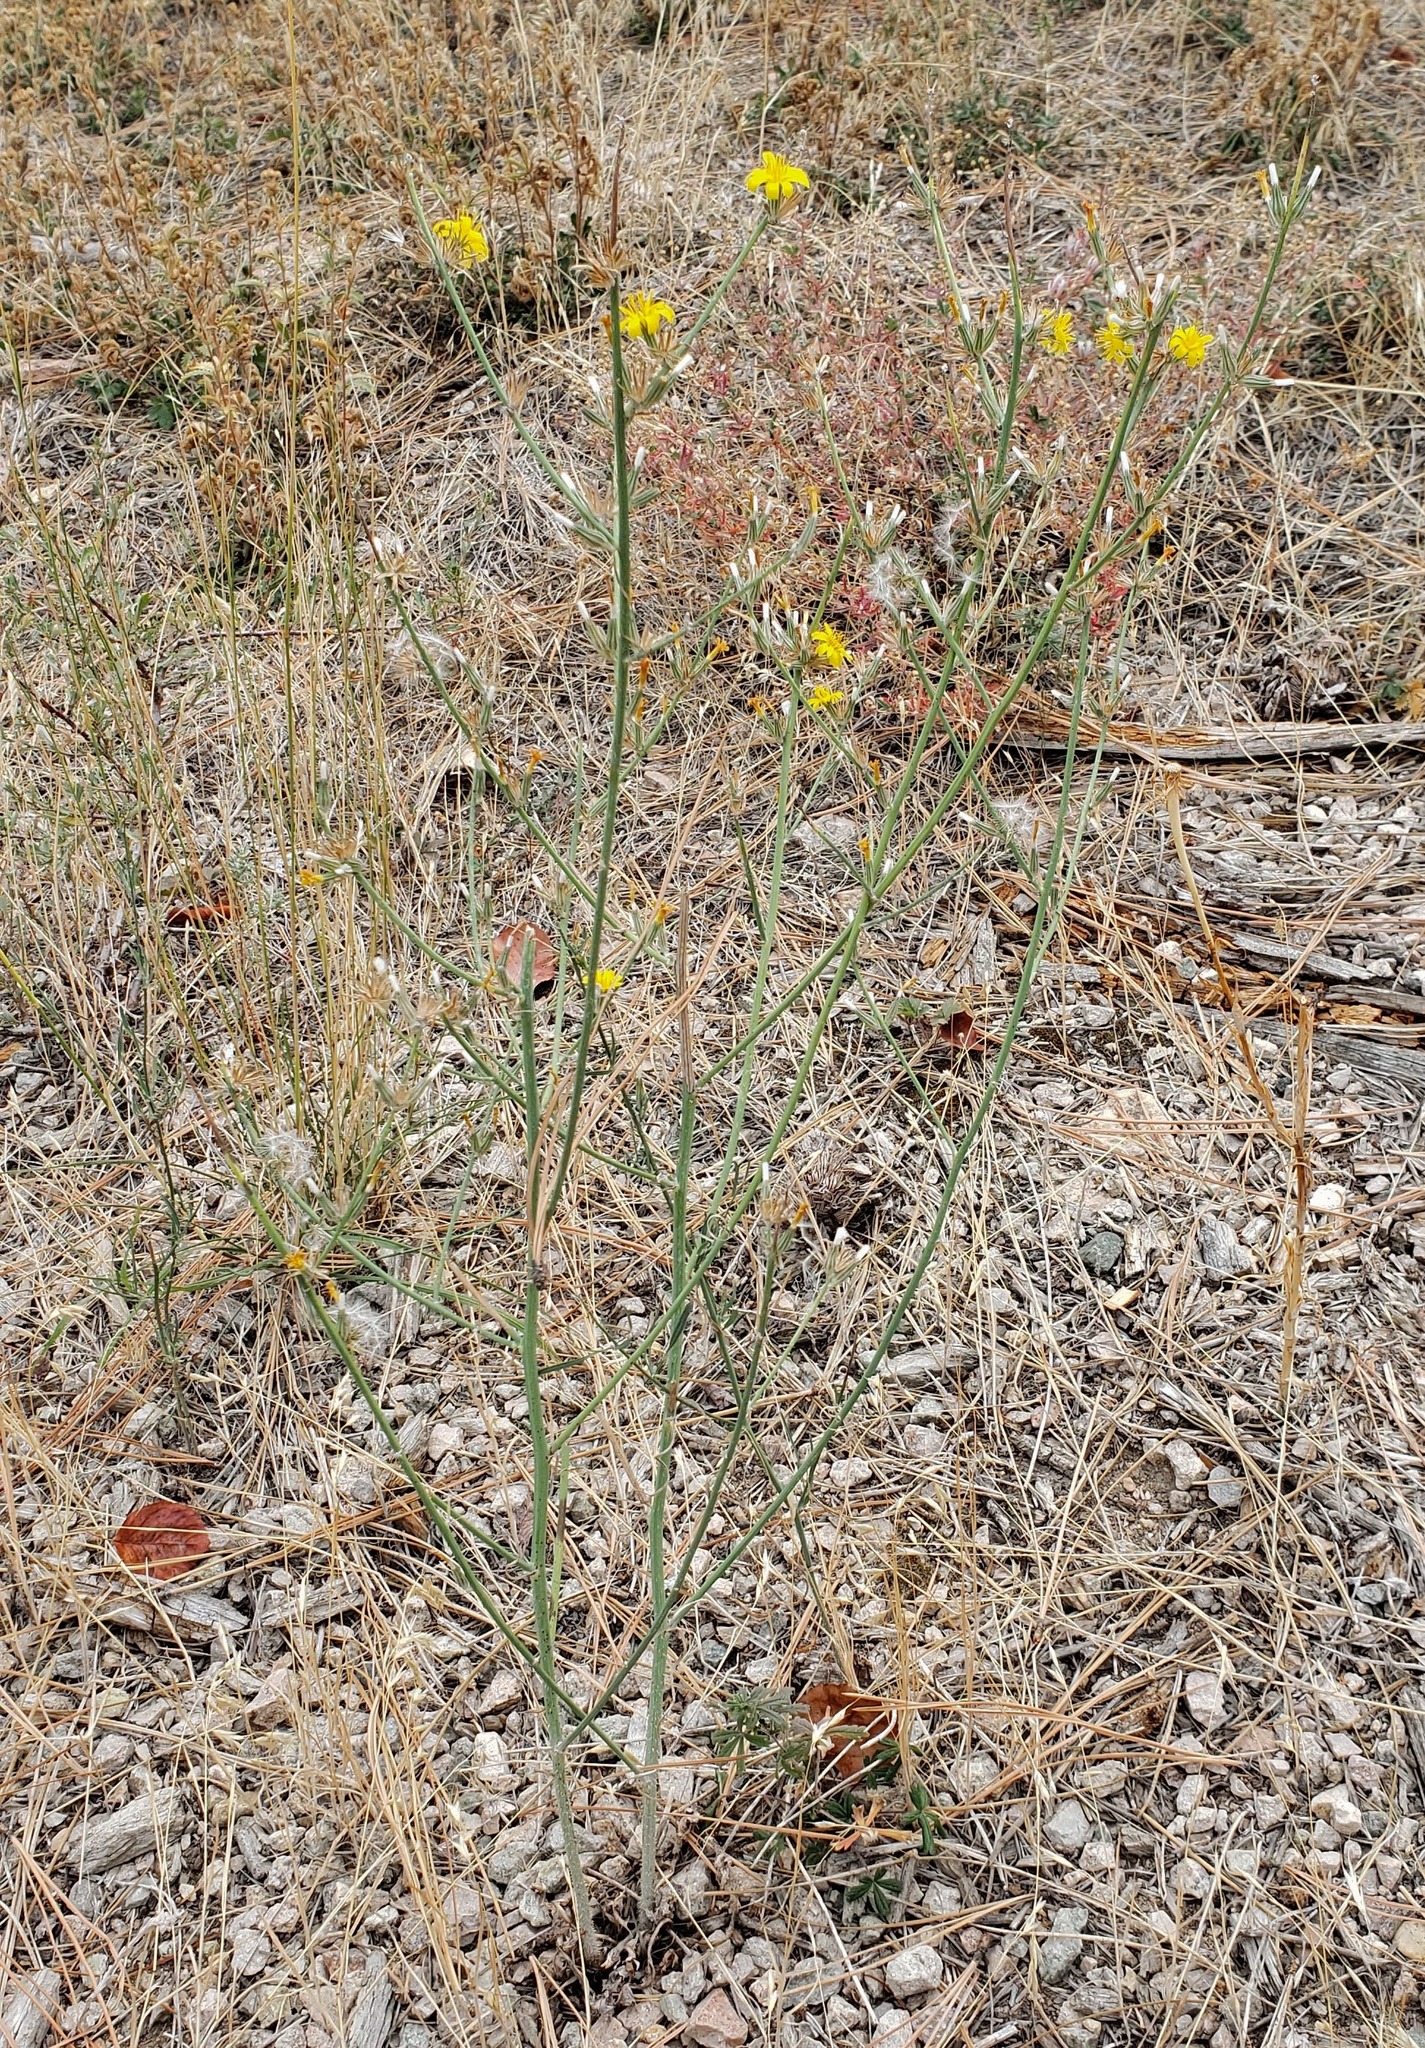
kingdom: Plantae
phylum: Tracheophyta
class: Magnoliopsida
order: Asterales
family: Asteraceae
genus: Chondrilla
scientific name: Chondrilla juncea
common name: Skeleton weed
